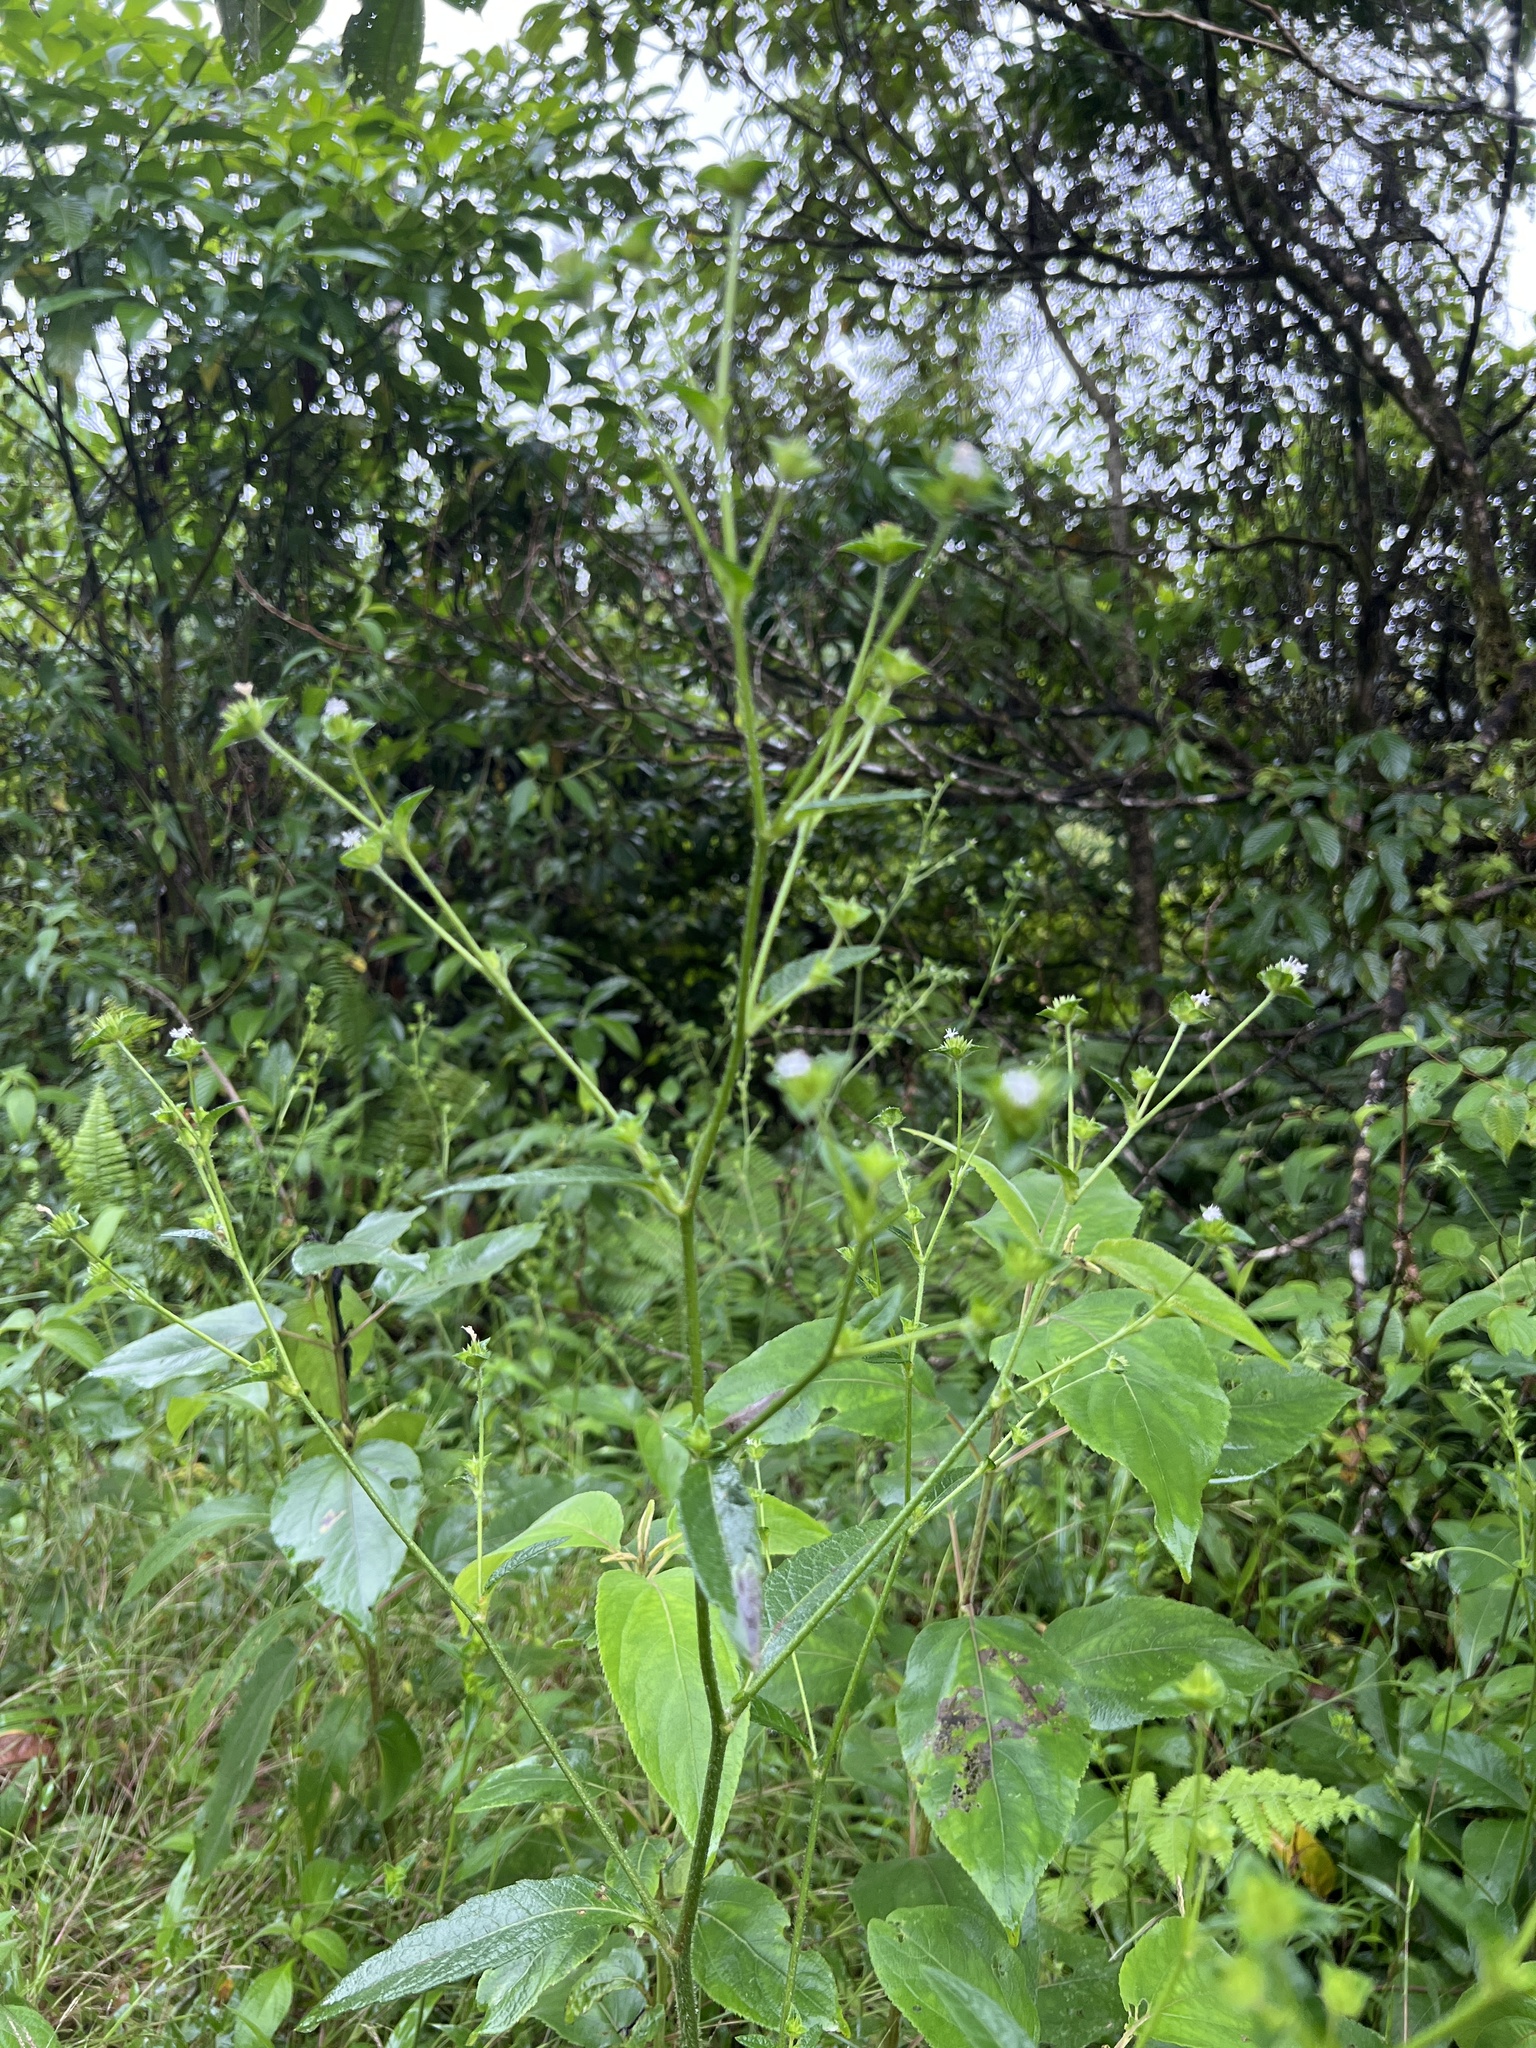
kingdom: Plantae
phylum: Tracheophyta
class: Magnoliopsida
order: Asterales
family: Asteraceae
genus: Elephantopus
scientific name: Elephantopus mollis
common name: Soft elephantsfoot
